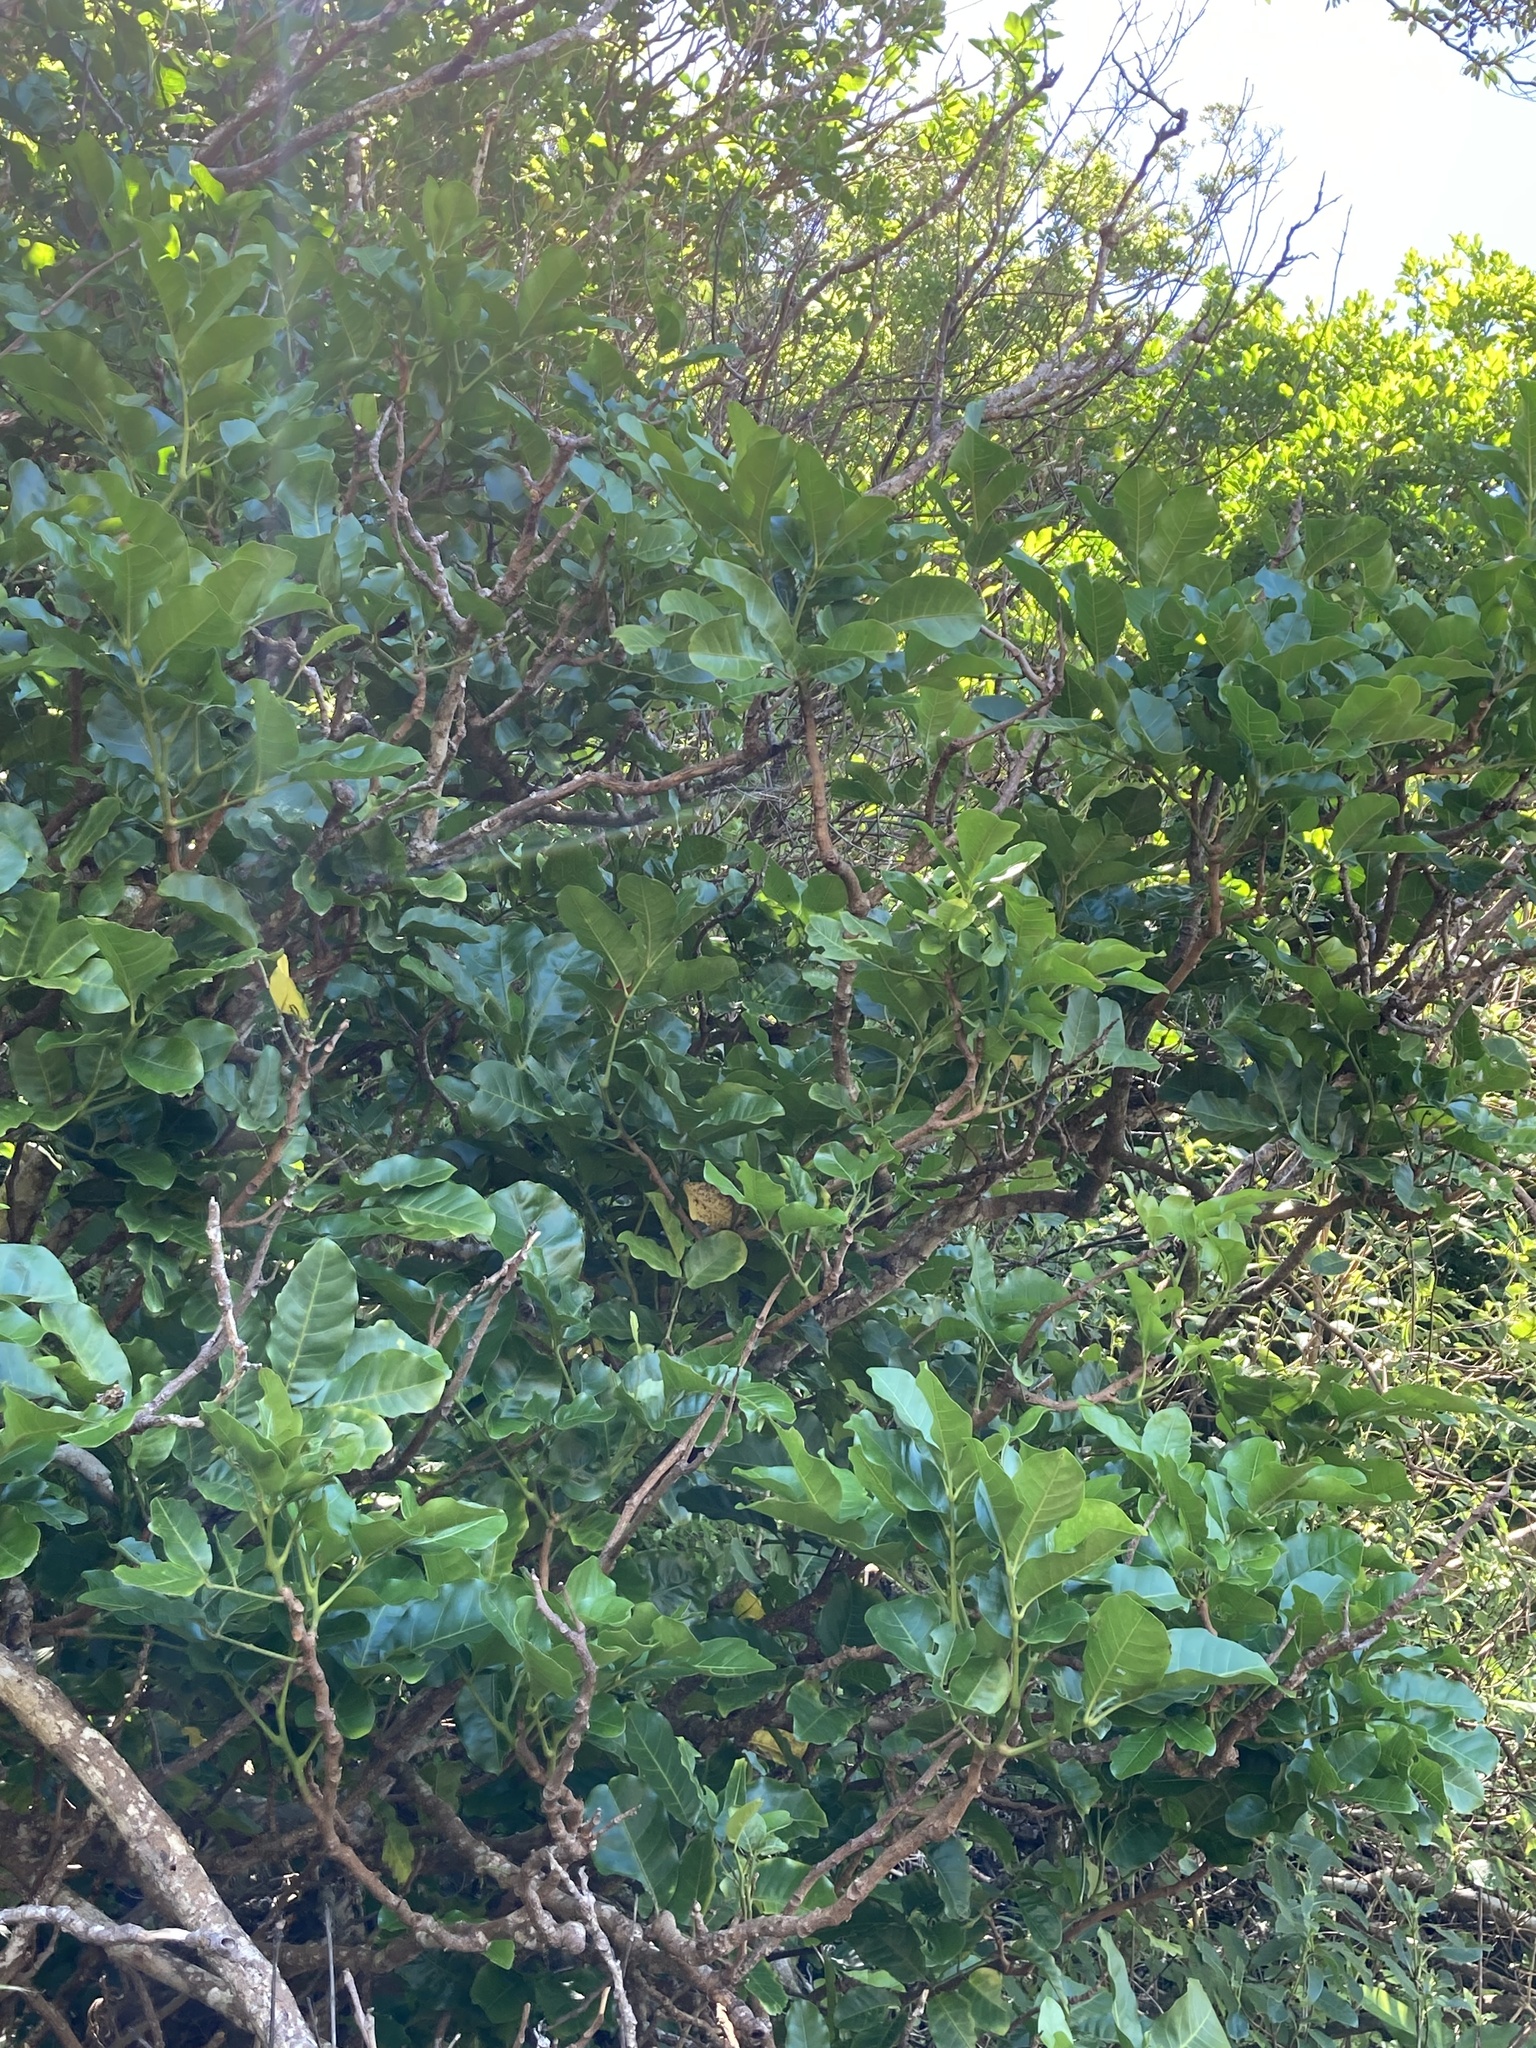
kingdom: Plantae
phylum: Tracheophyta
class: Magnoliopsida
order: Sapindales
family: Meliaceae
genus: Didymocheton
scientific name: Didymocheton spectabilis
